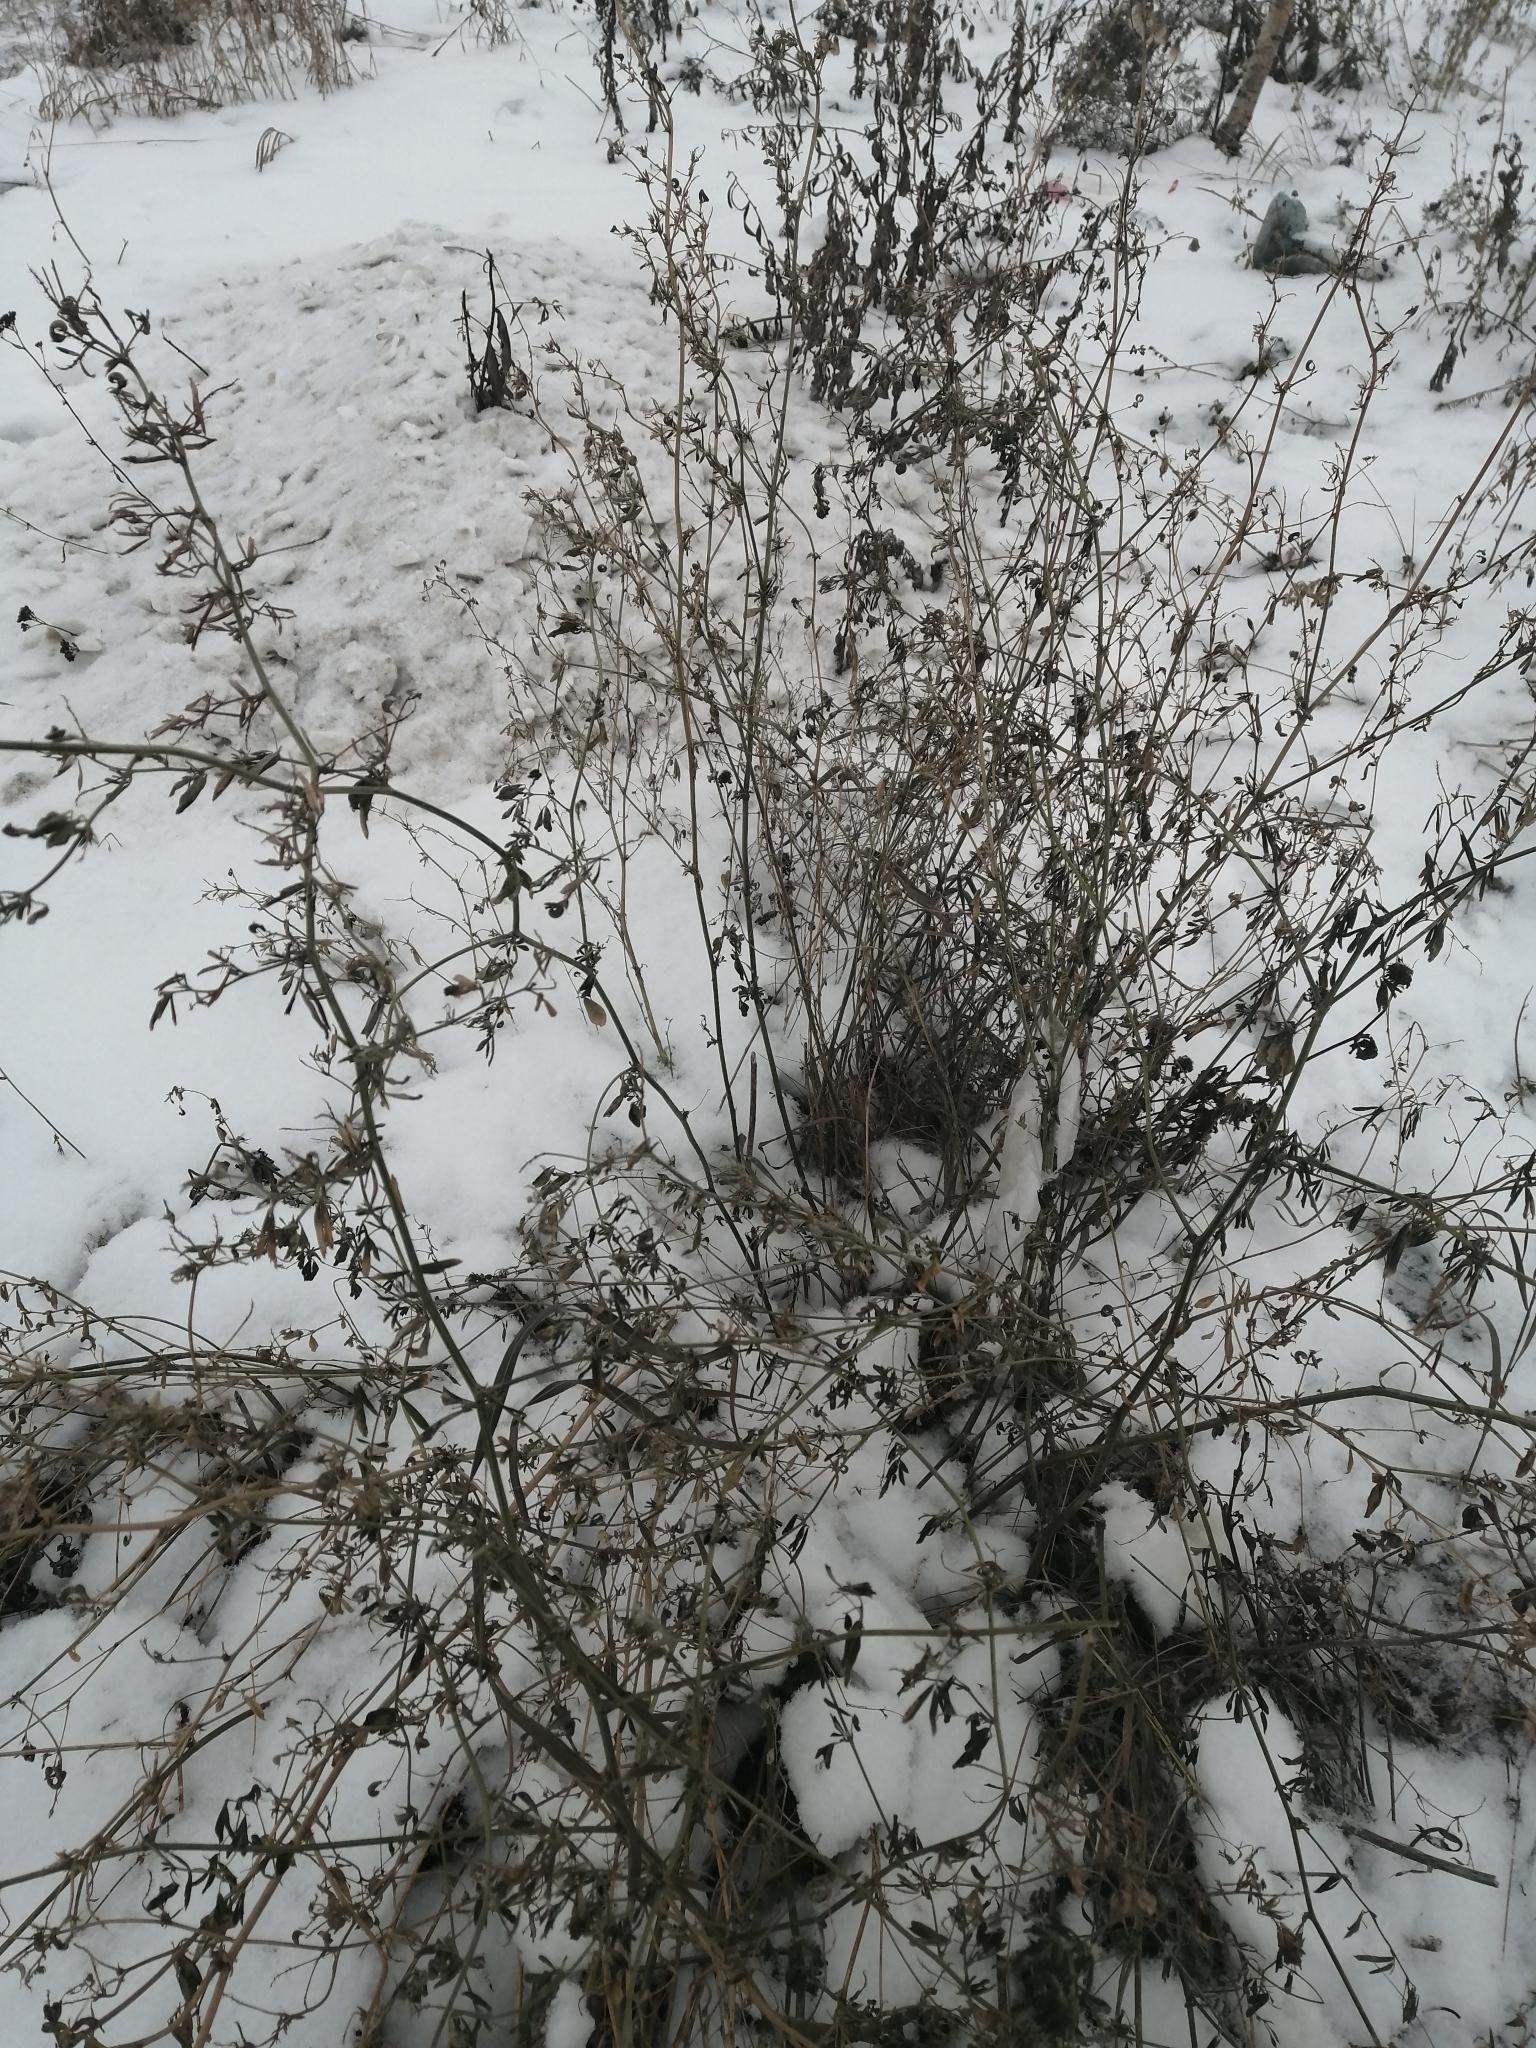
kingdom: Plantae
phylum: Tracheophyta
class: Magnoliopsida
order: Fabales
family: Fabaceae
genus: Medicago
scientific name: Medicago varia
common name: Sand lucerne
